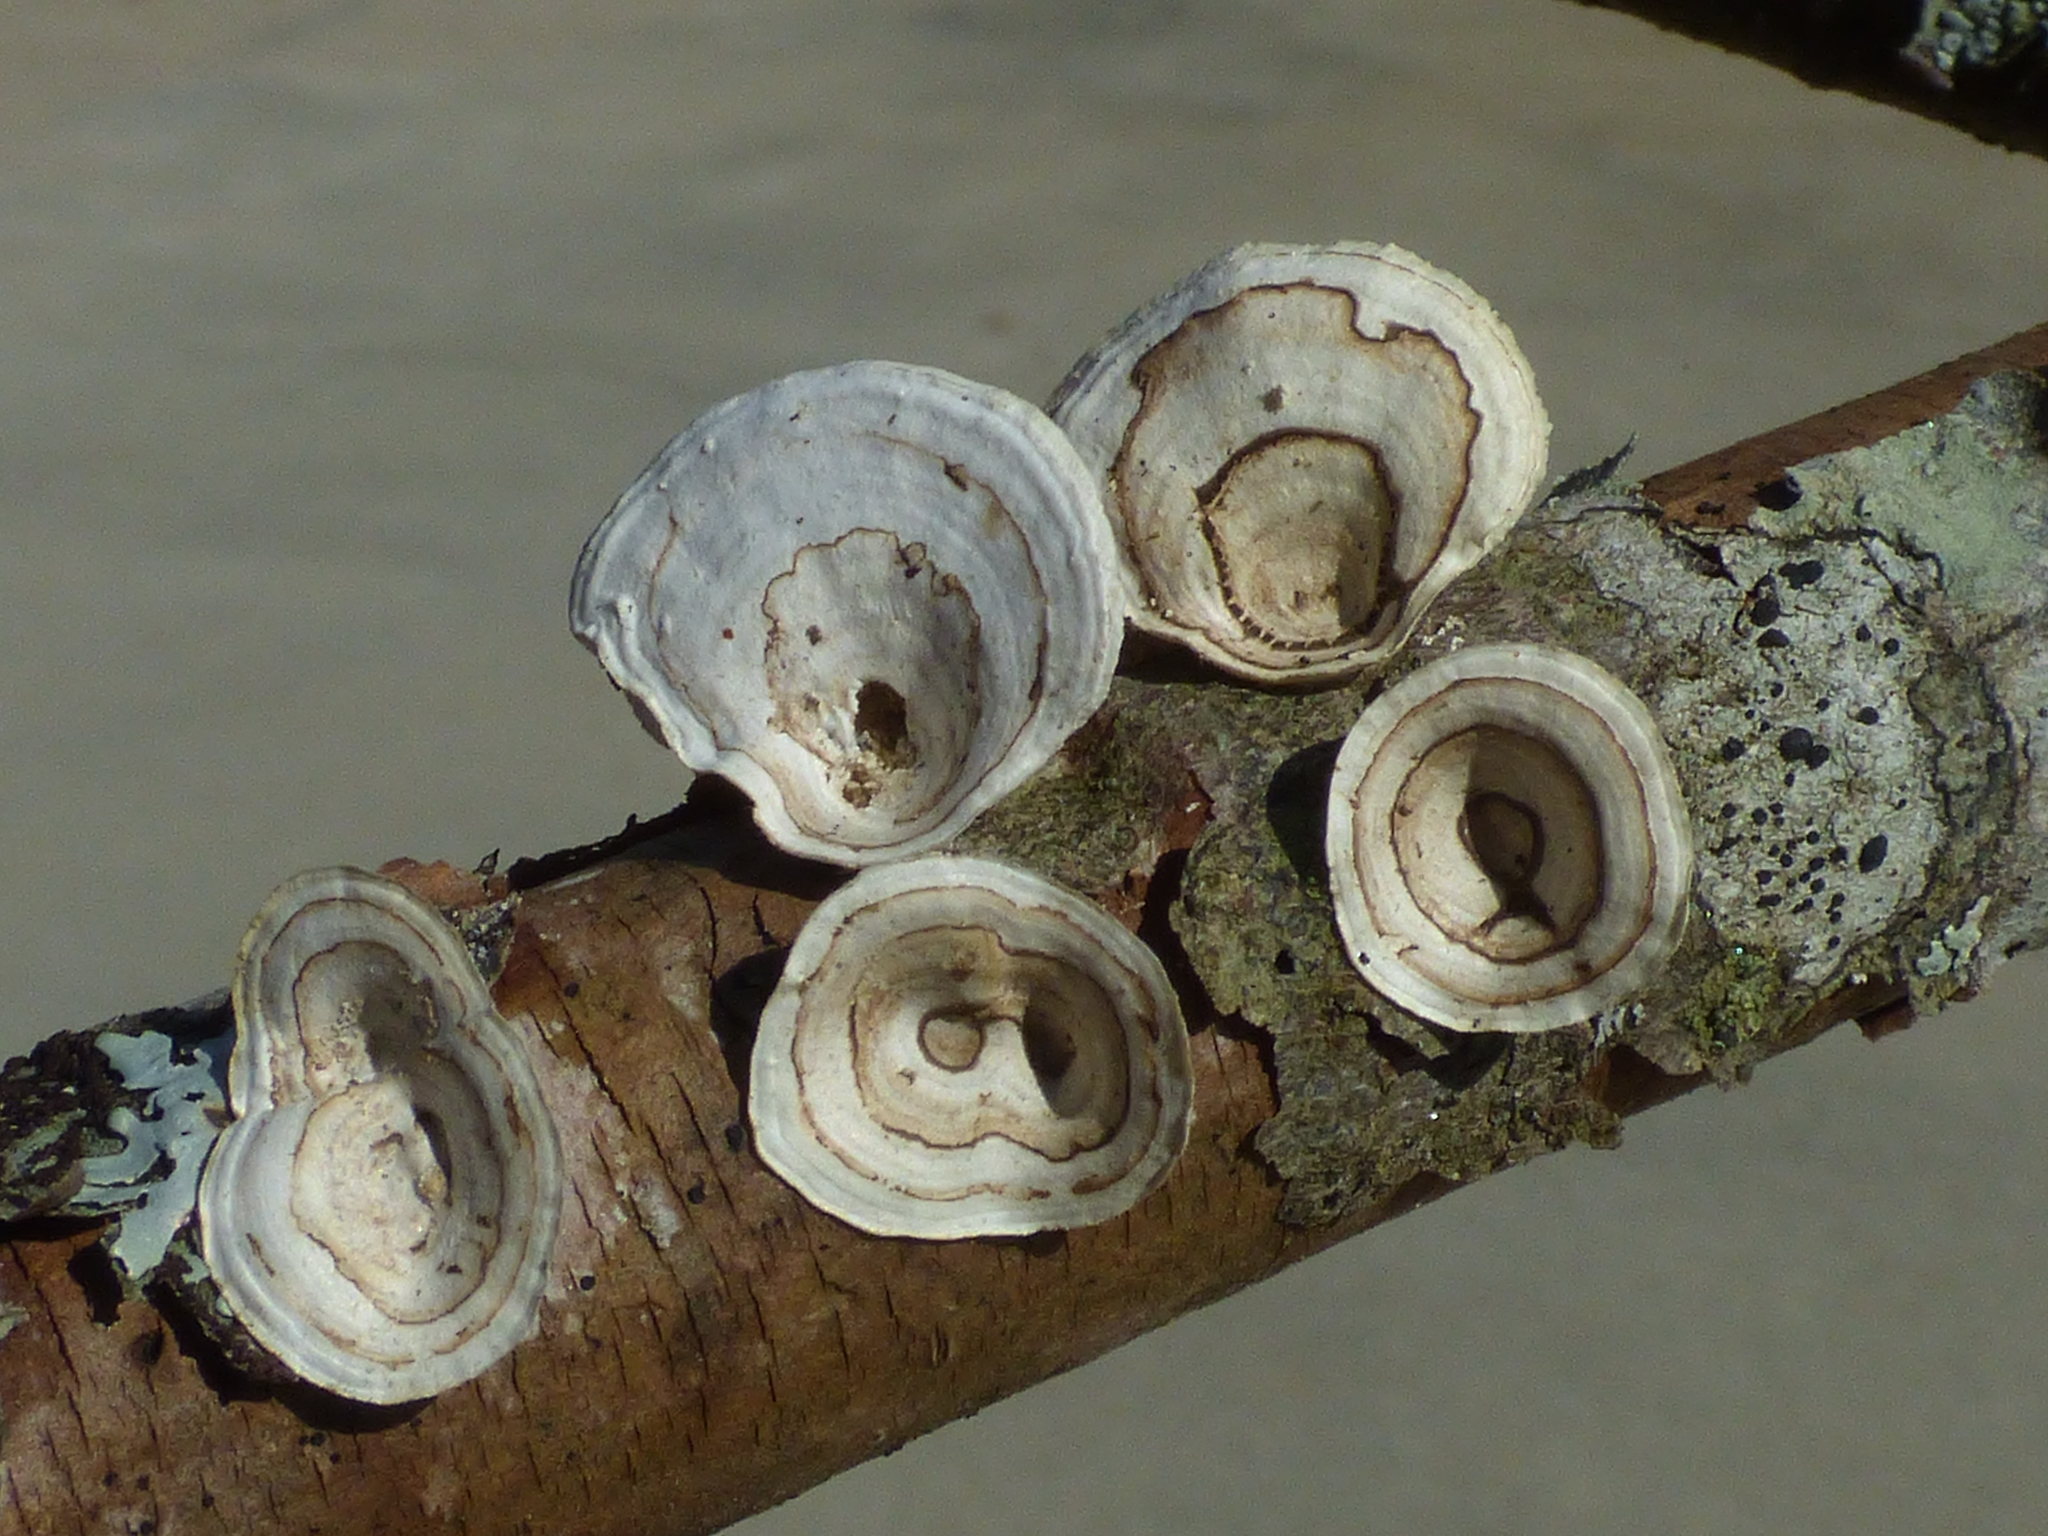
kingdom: Fungi
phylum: Basidiomycota
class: Agaricomycetes
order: Polyporales
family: Polyporaceae
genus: Poronidulus
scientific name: Poronidulus conchifer
